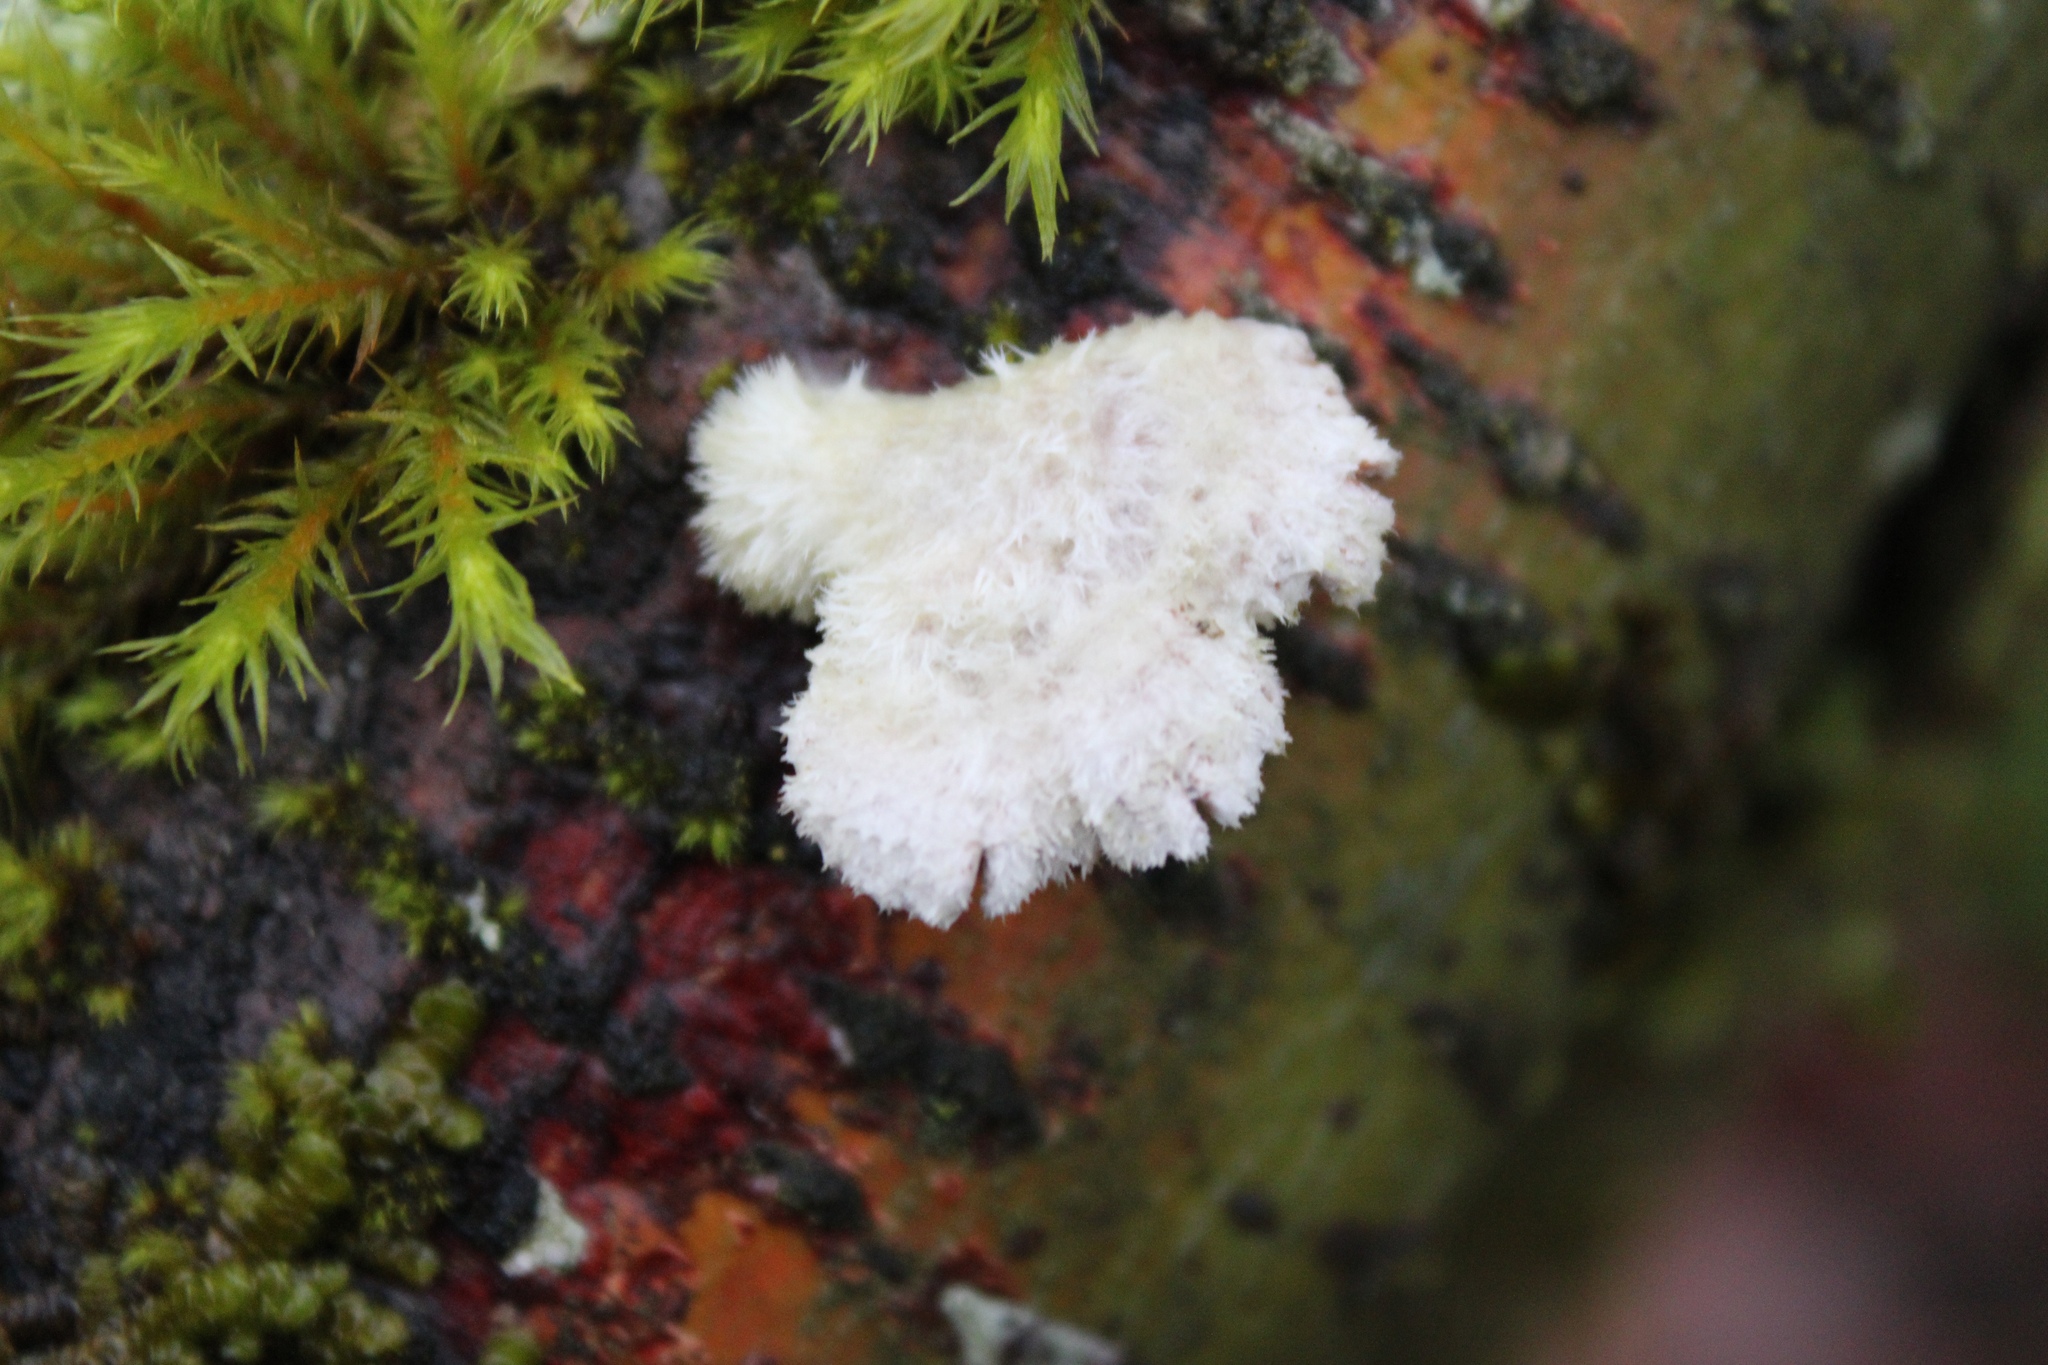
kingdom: Fungi
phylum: Basidiomycota
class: Agaricomycetes
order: Agaricales
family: Schizophyllaceae
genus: Schizophyllum
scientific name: Schizophyllum commune
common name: Common porecrust
